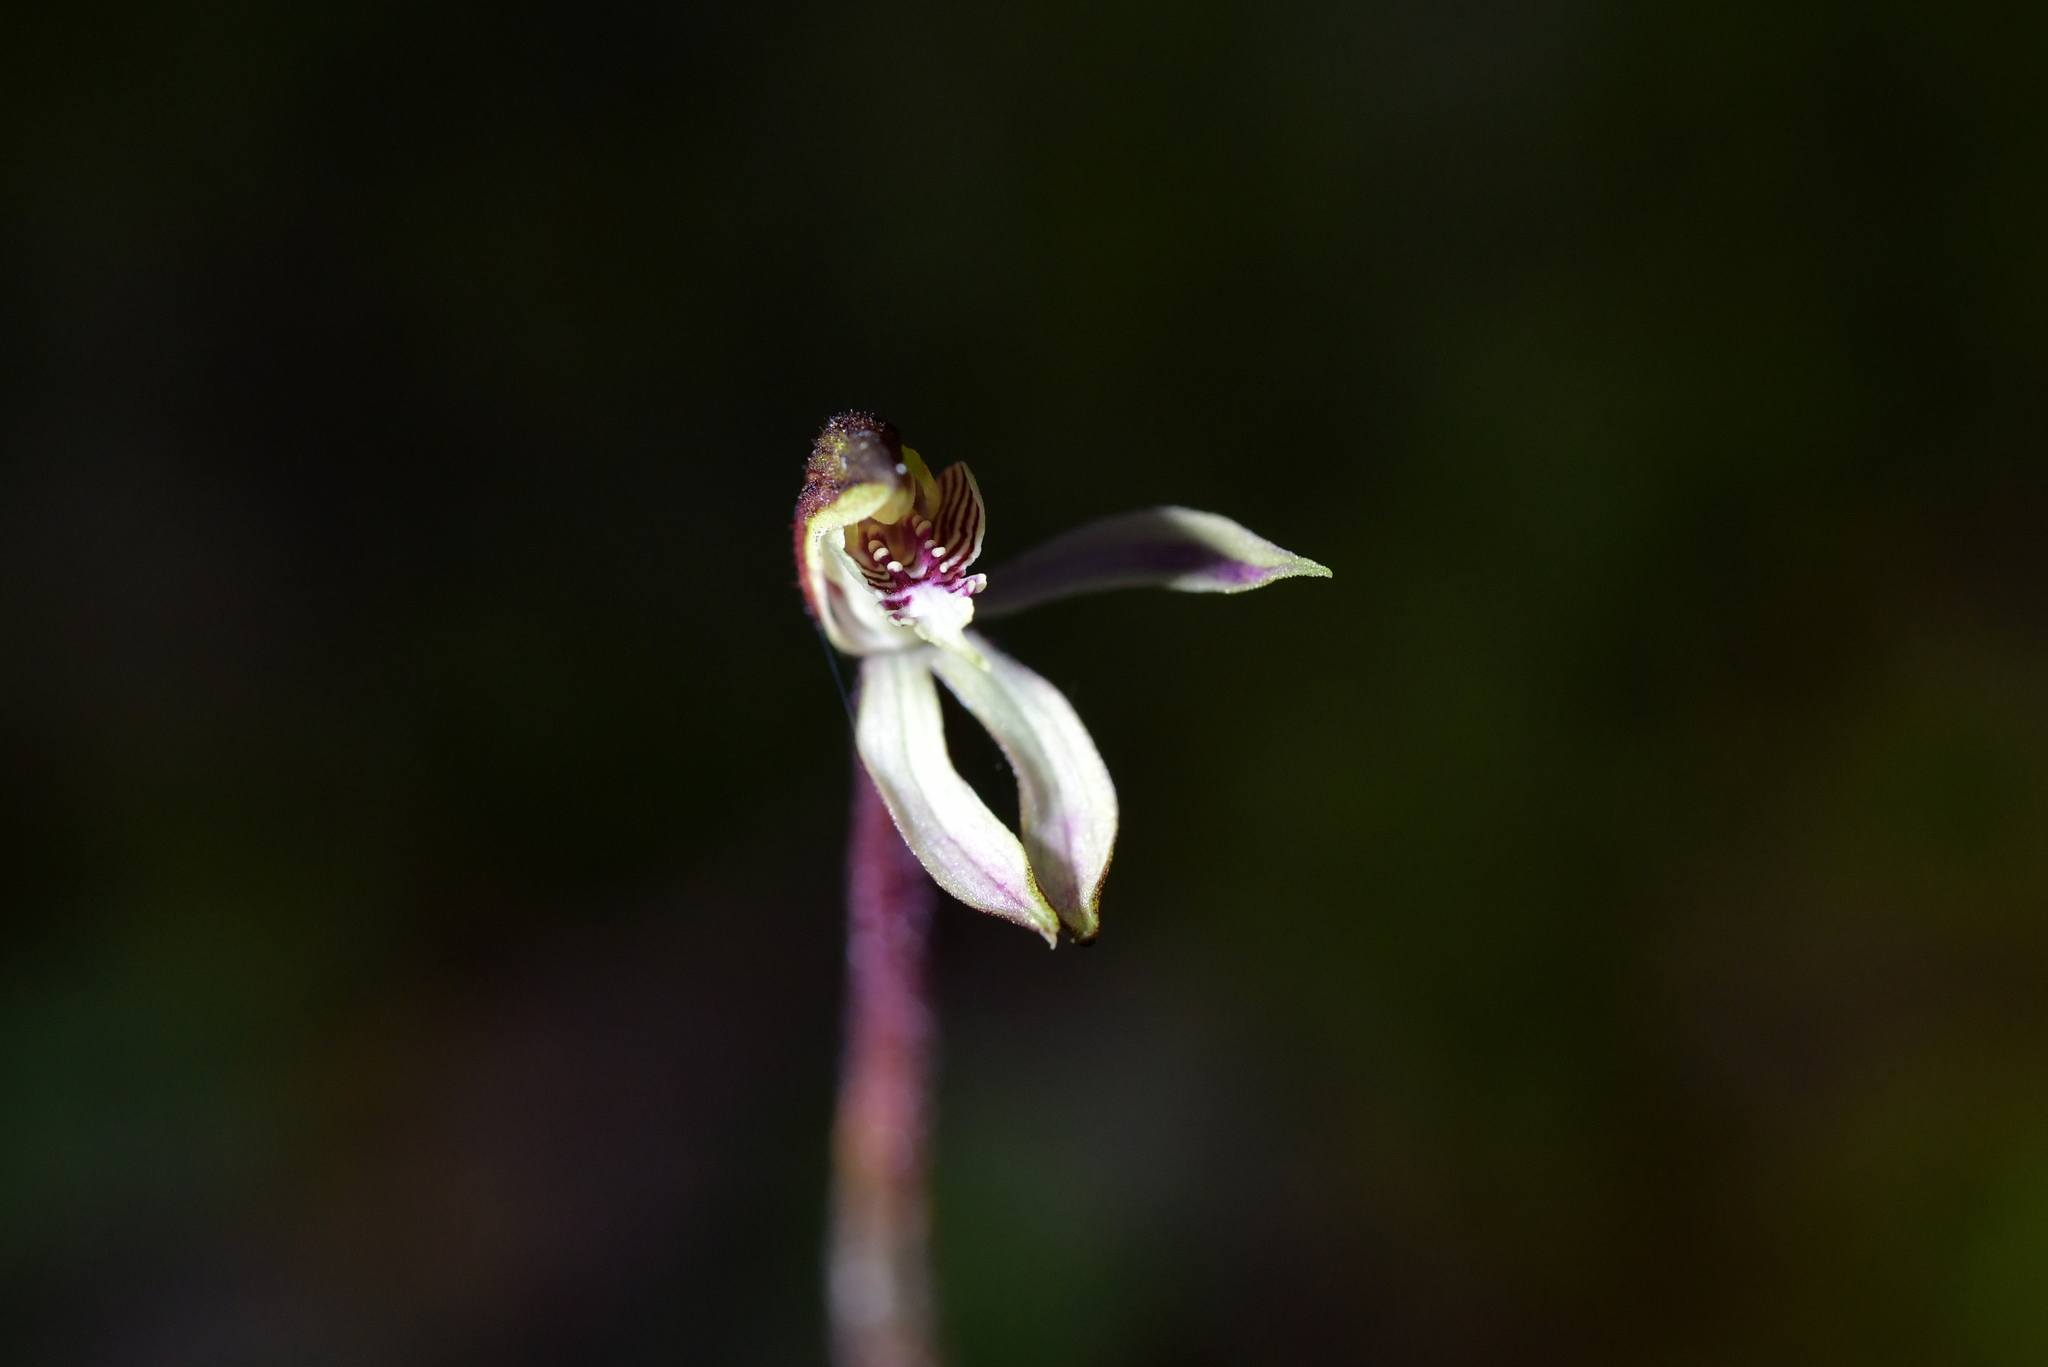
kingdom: Plantae
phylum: Tracheophyta
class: Liliopsida
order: Asparagales
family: Orchidaceae
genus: Caladenia
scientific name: Caladenia chlorostyla
